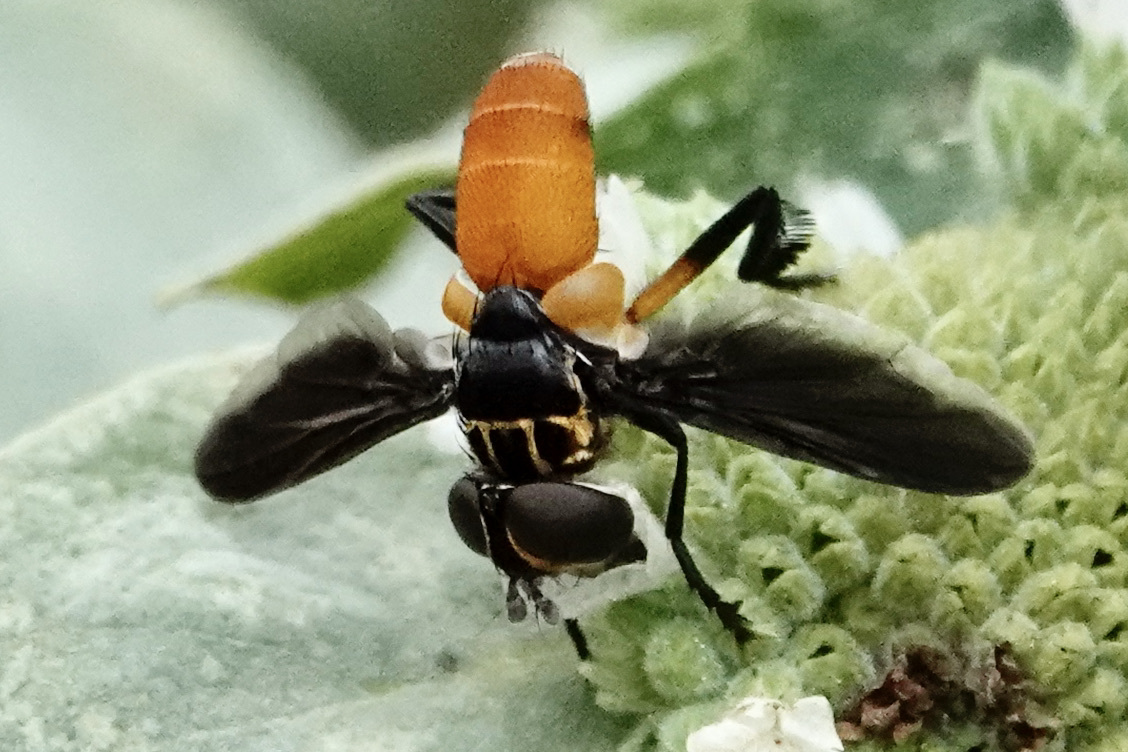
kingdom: Animalia
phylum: Arthropoda
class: Insecta
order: Diptera
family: Tachinidae
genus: Trichopoda
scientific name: Trichopoda pennipes
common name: Tachinid fly
